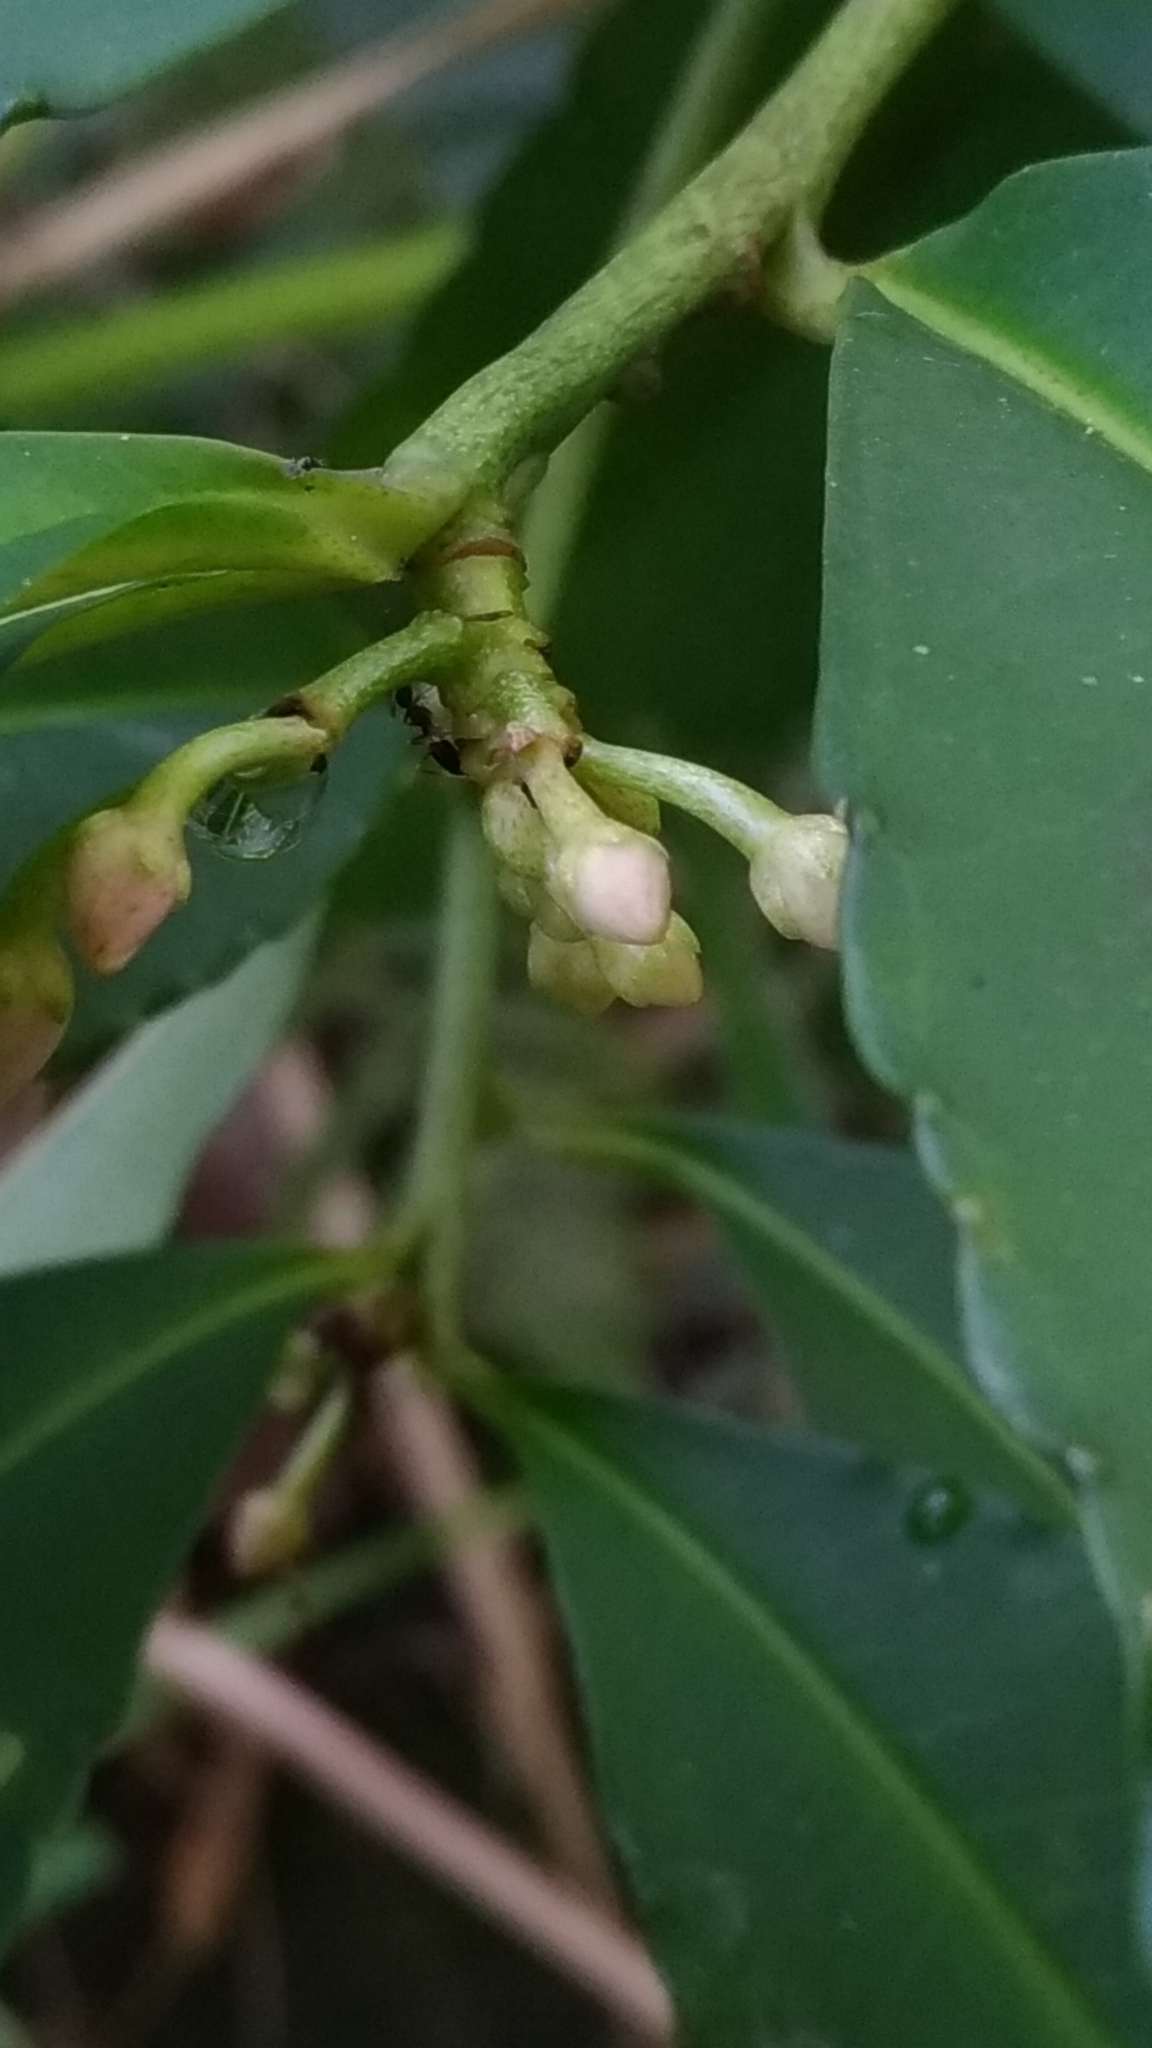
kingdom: Plantae
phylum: Tracheophyta
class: Magnoliopsida
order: Ericales
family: Primulaceae
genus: Ardisia
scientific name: Ardisia crenata
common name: Hen's eyes
